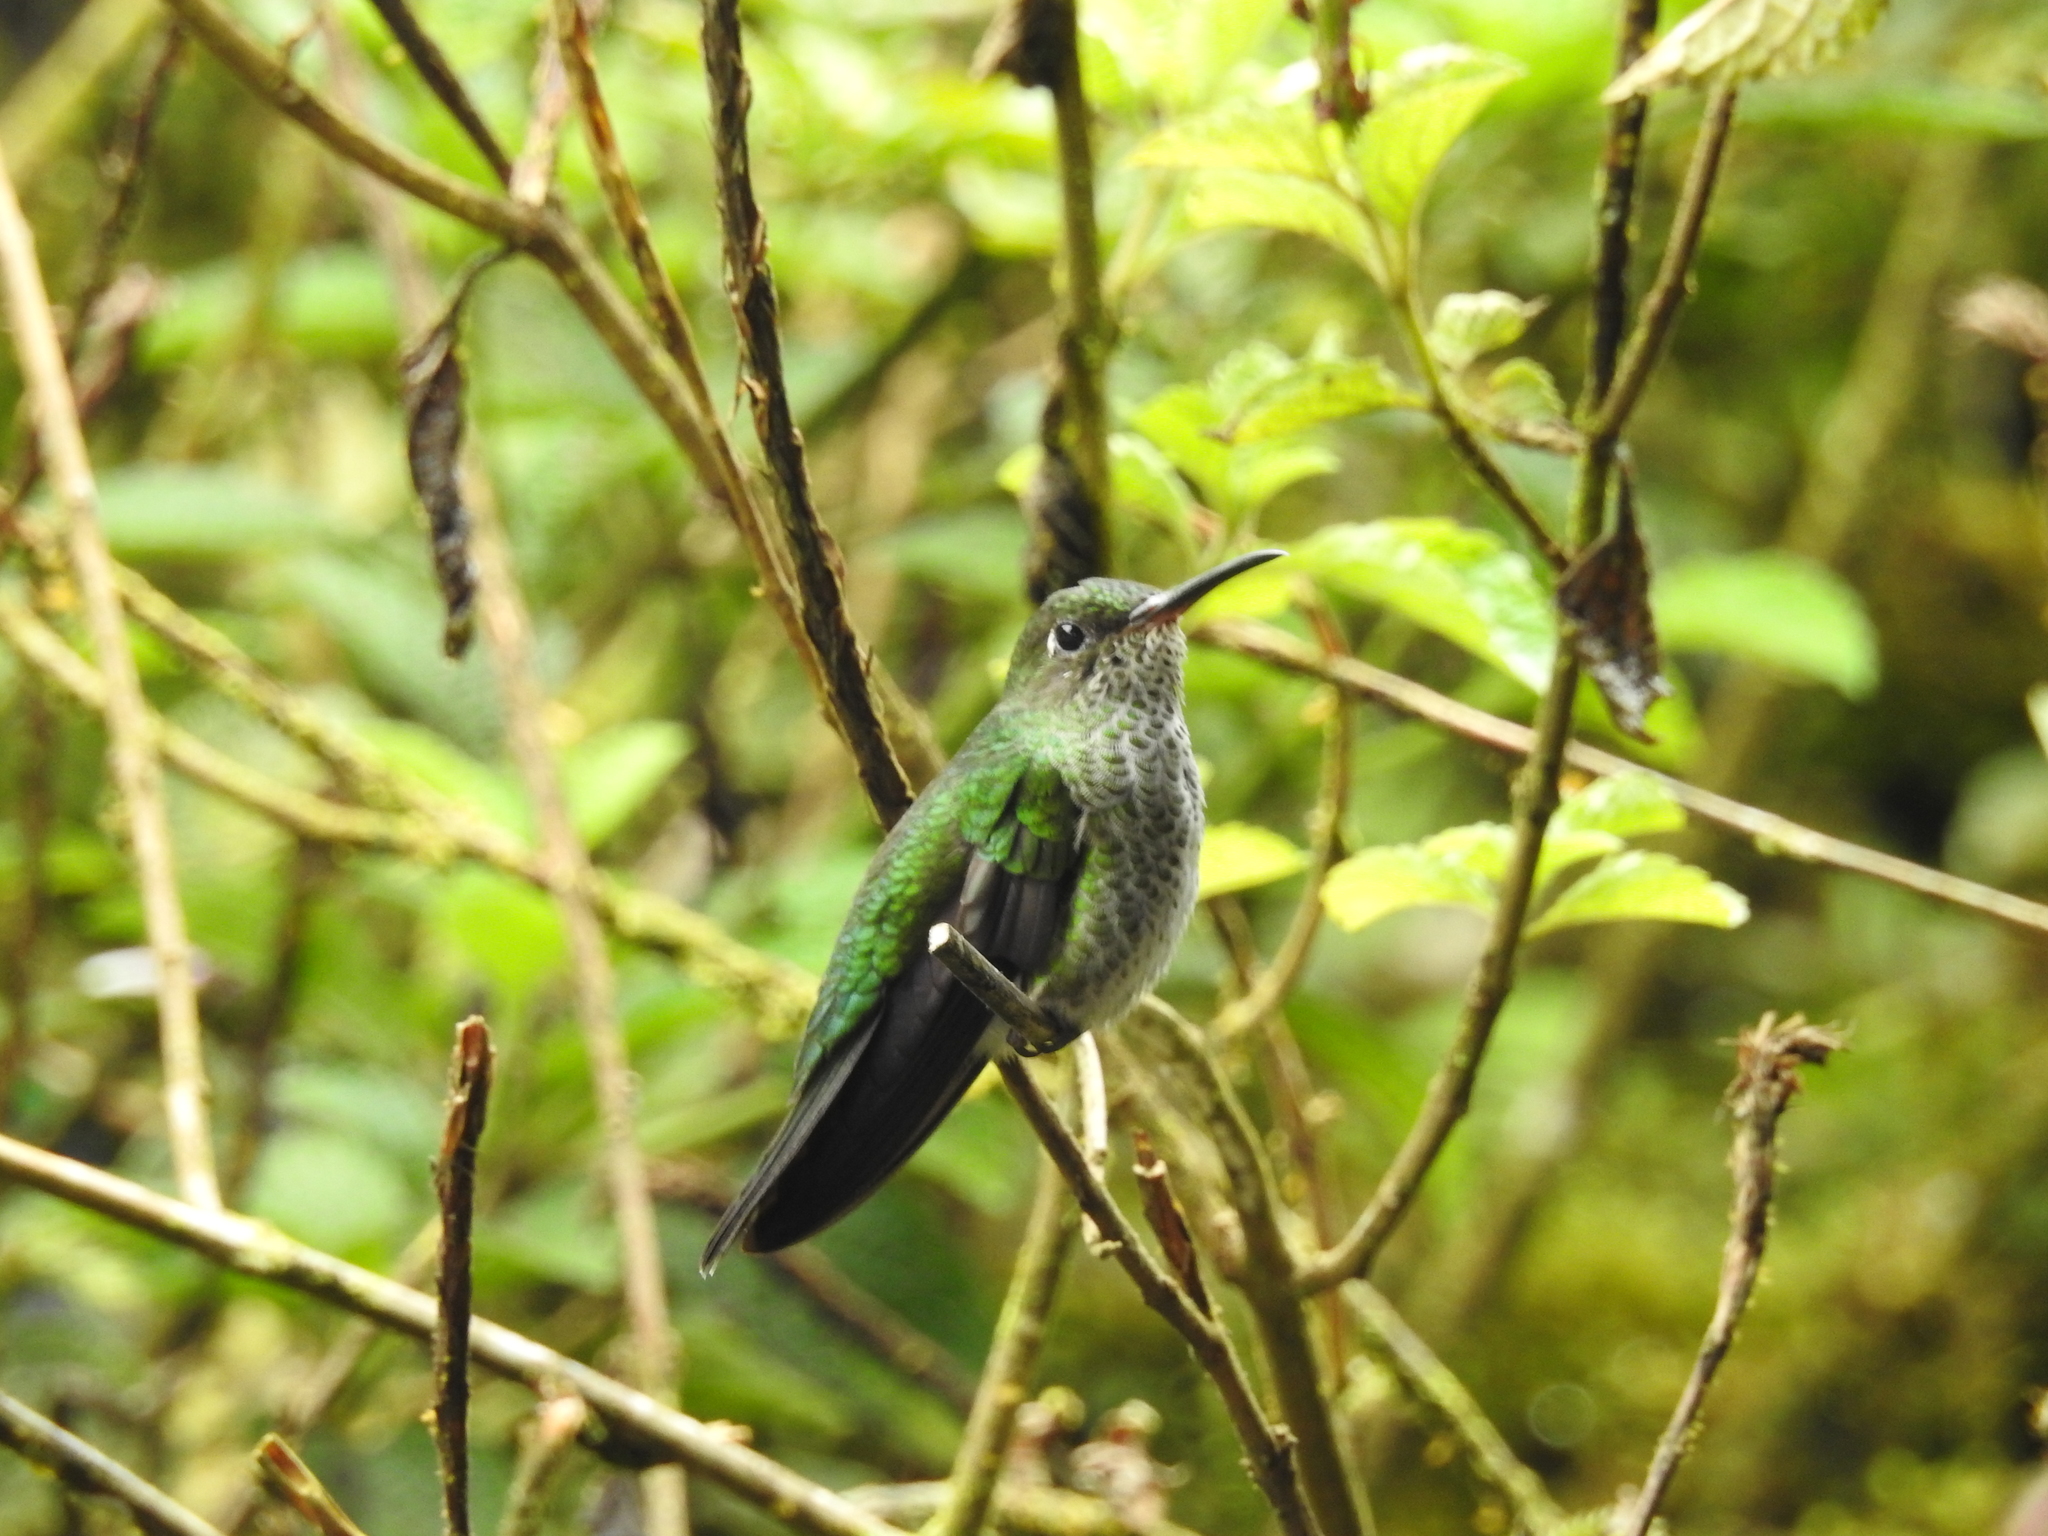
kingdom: Animalia
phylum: Chordata
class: Aves
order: Apodiformes
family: Trochilidae
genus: Taphrospilus
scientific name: Taphrospilus hypostictus
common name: Many-spotted hummingbird
